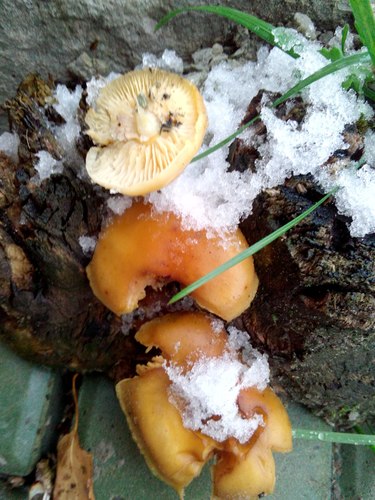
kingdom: Fungi
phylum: Basidiomycota
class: Agaricomycetes
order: Agaricales
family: Physalacriaceae
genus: Flammulina
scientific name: Flammulina
